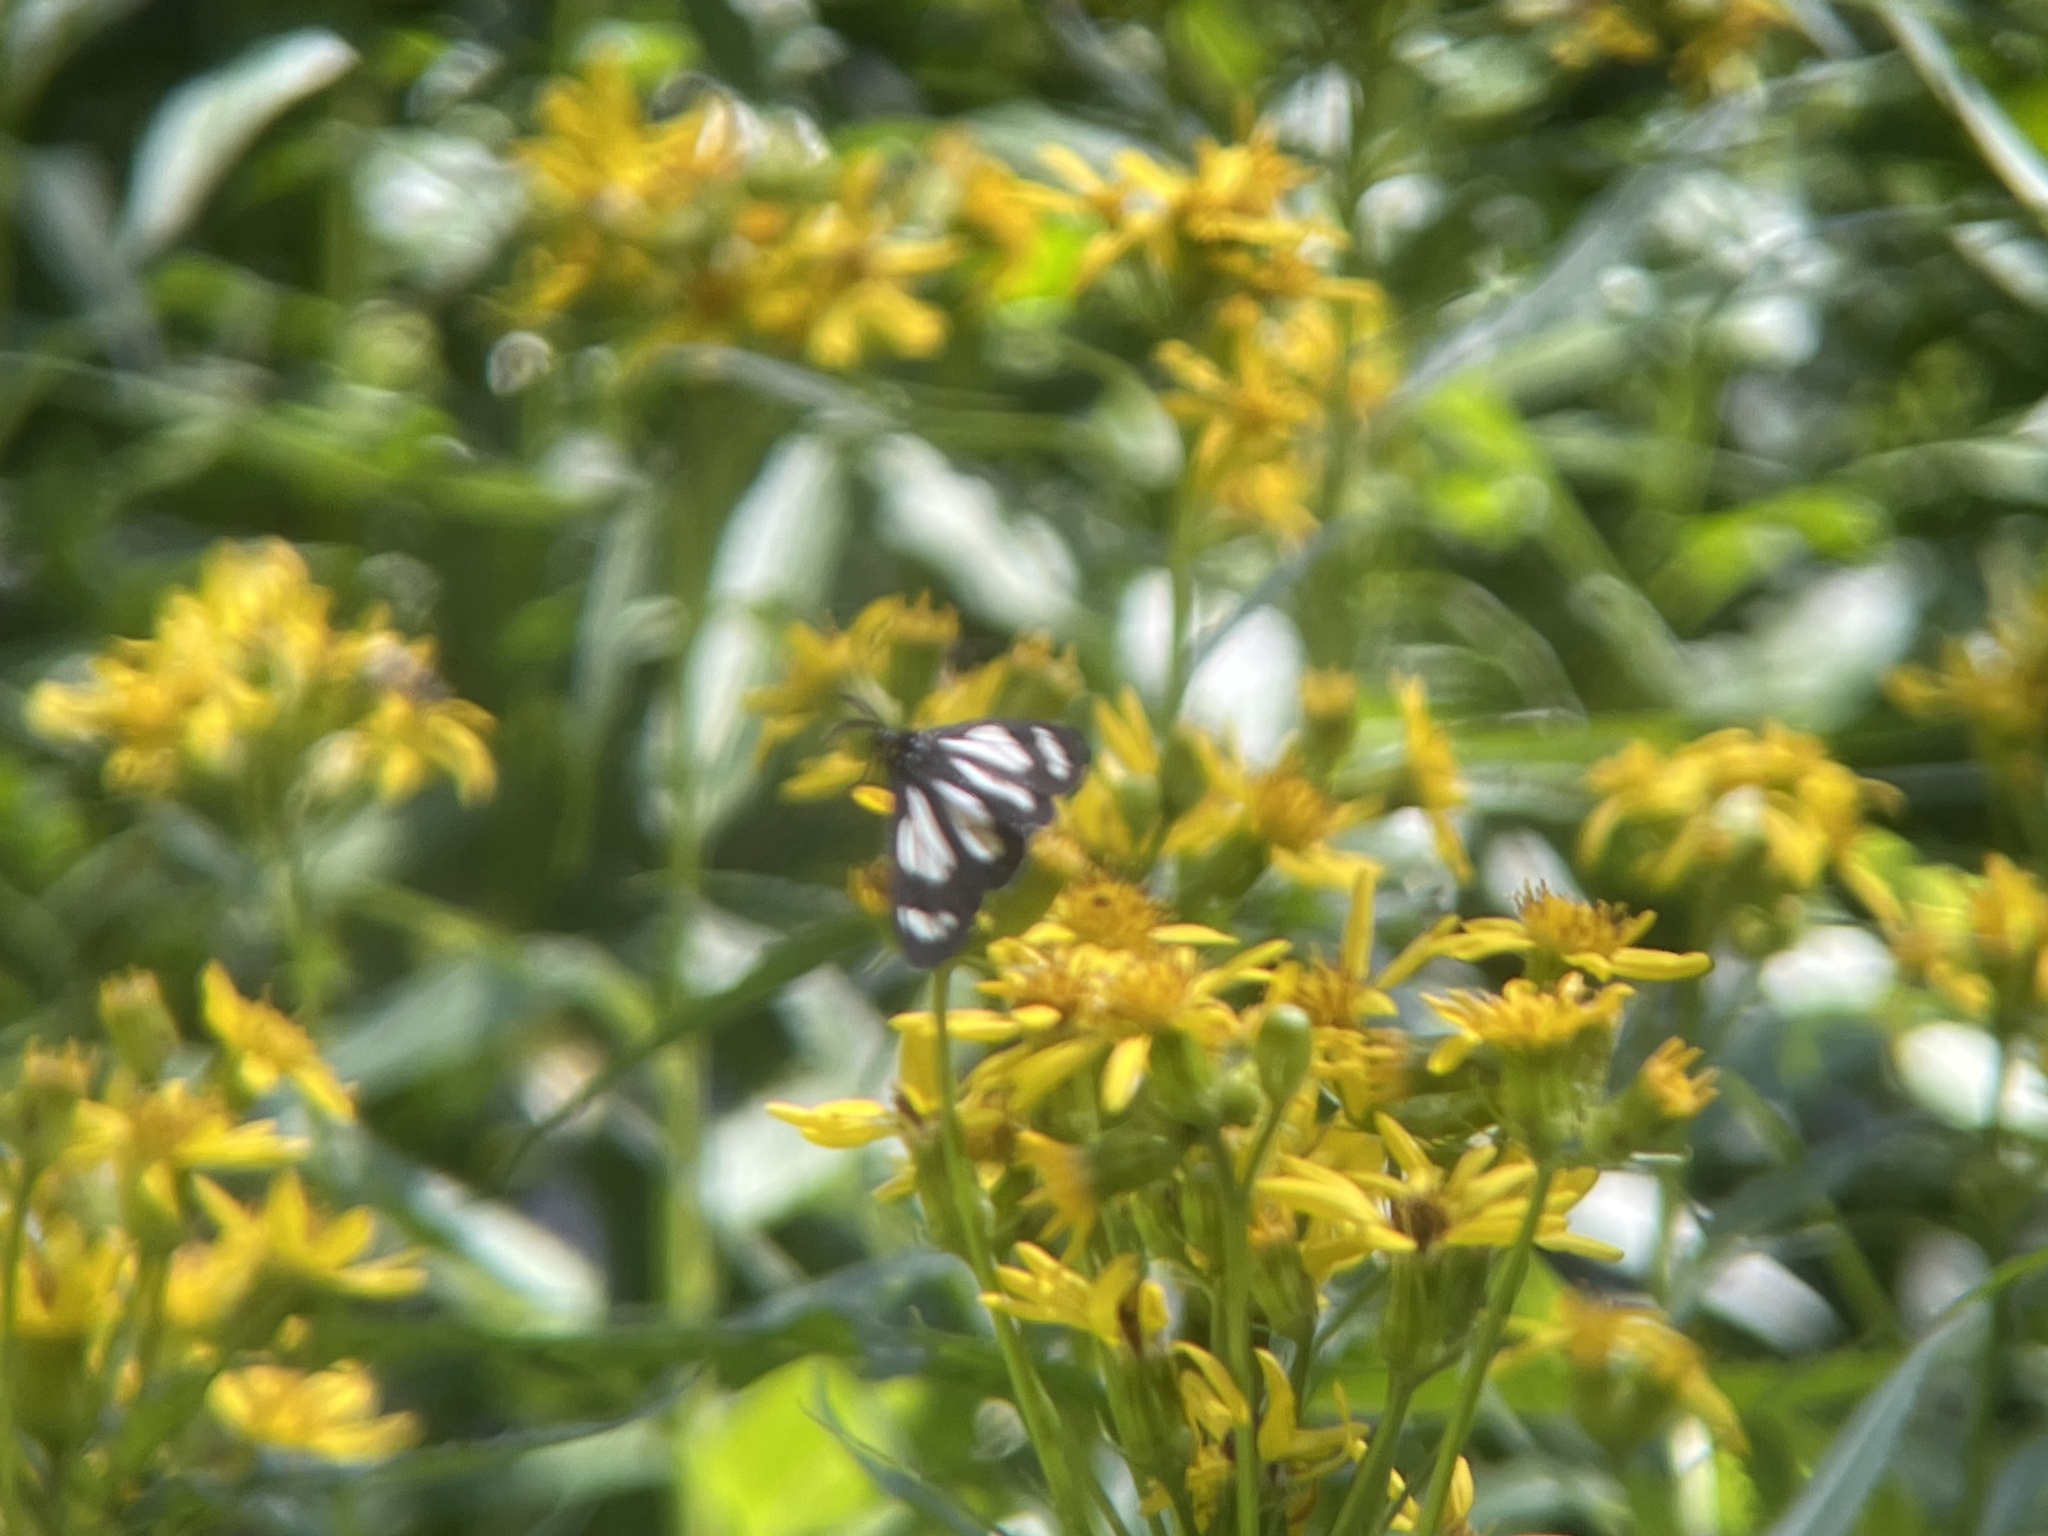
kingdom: Animalia
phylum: Arthropoda
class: Insecta
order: Lepidoptera
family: Erebidae
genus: Gnophaela
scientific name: Gnophaela vermiculata
